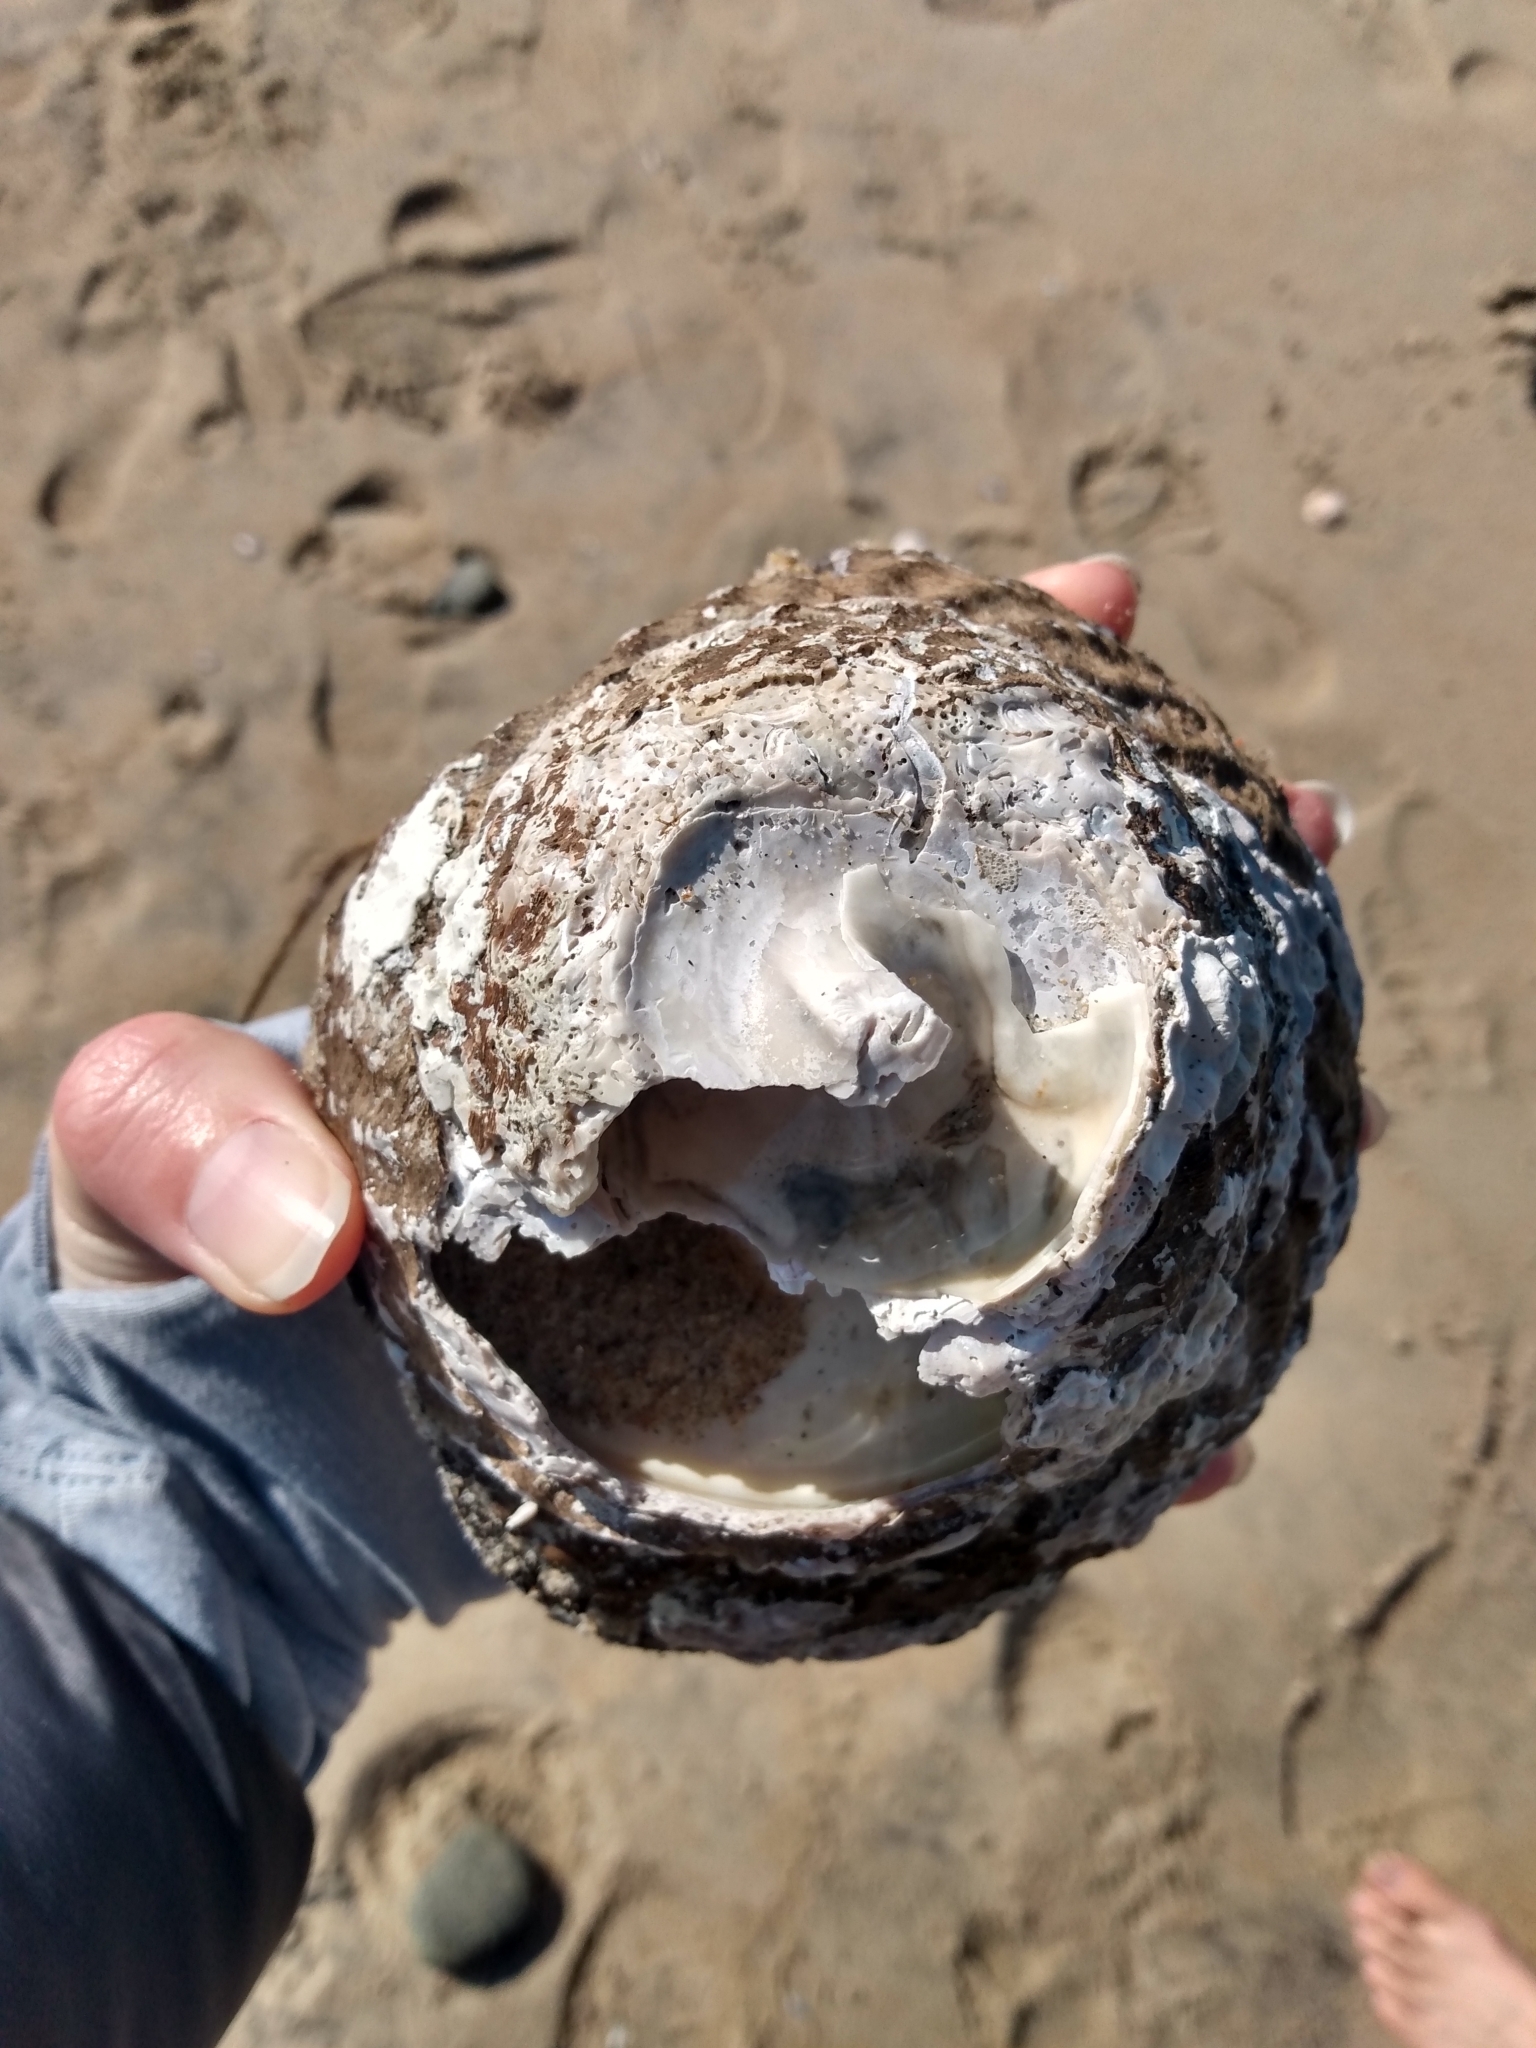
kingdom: Animalia
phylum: Mollusca
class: Gastropoda
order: Trochida
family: Turbinidae
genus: Megastraea
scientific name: Megastraea undosa
